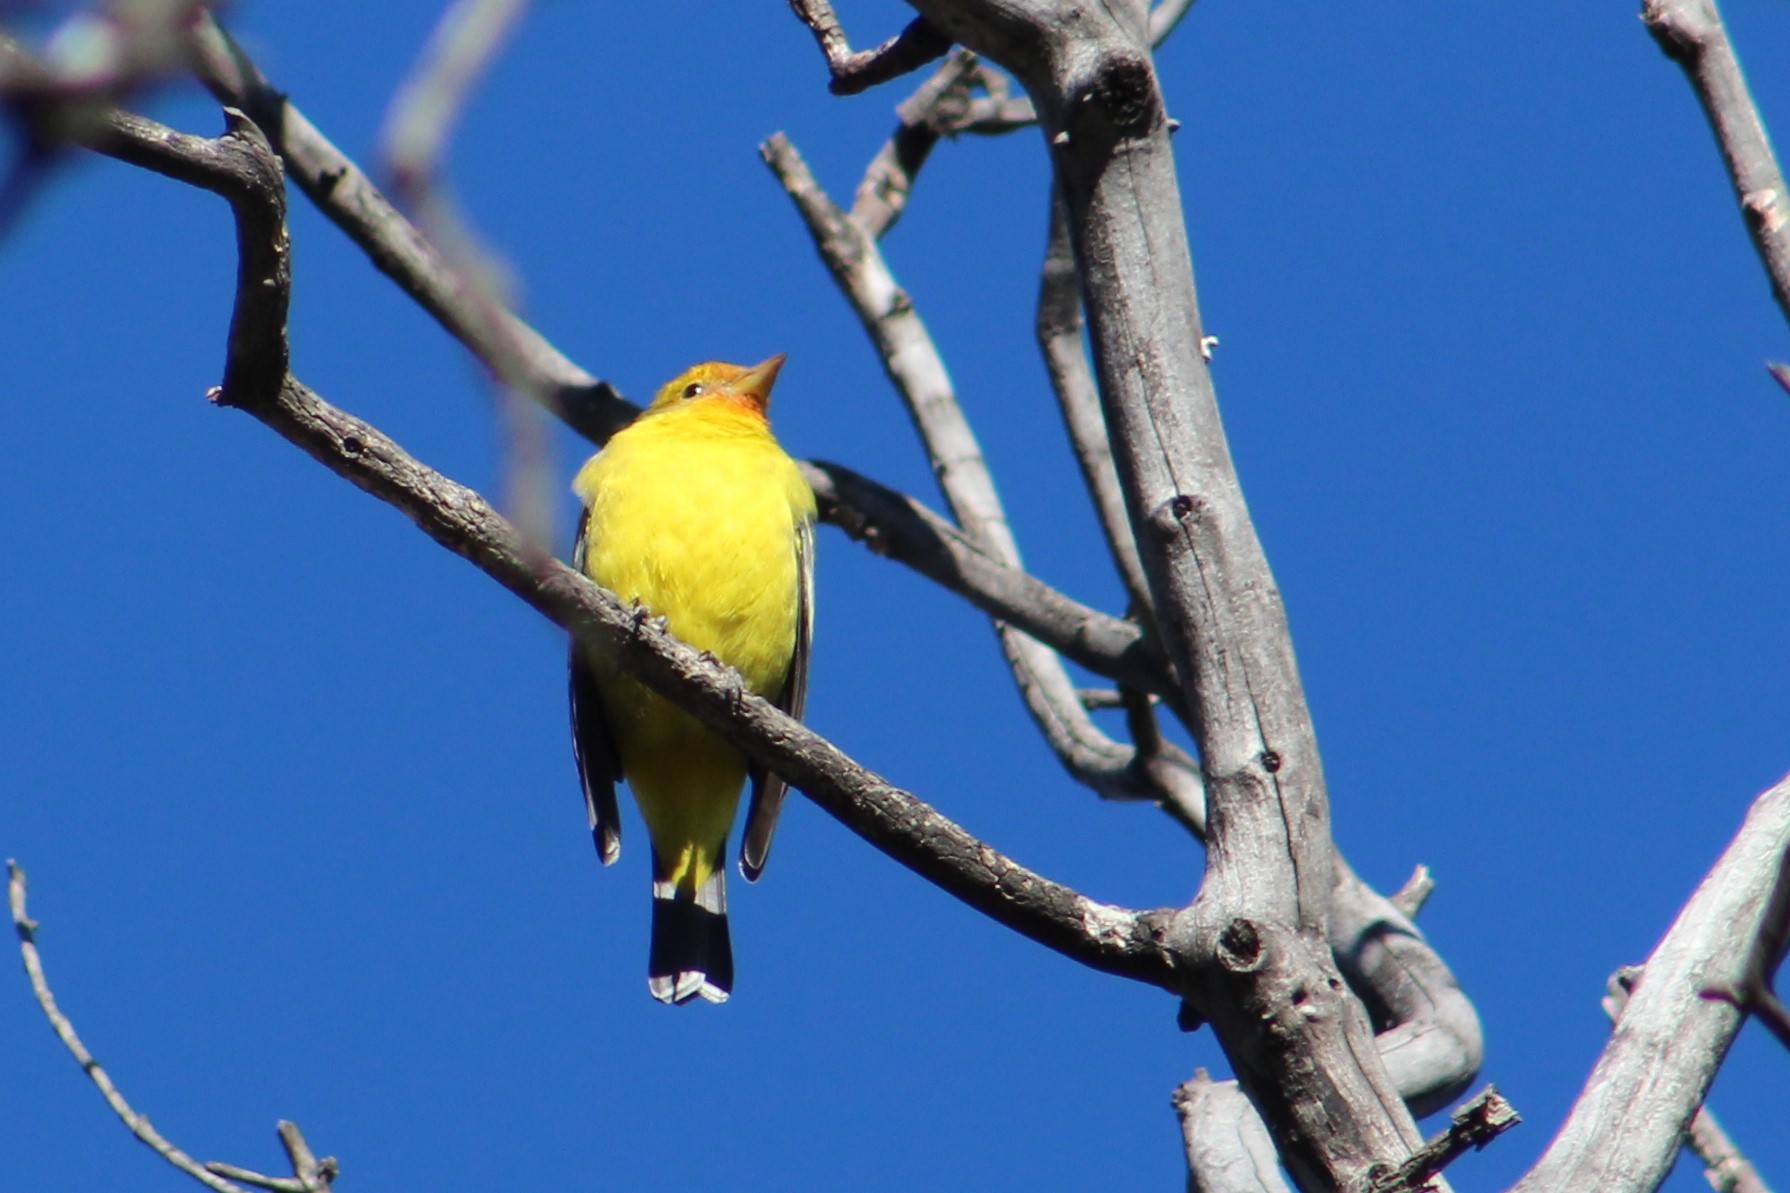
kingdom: Animalia
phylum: Chordata
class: Aves
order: Passeriformes
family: Cardinalidae
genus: Piranga
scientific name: Piranga ludoviciana
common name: Western tanager
